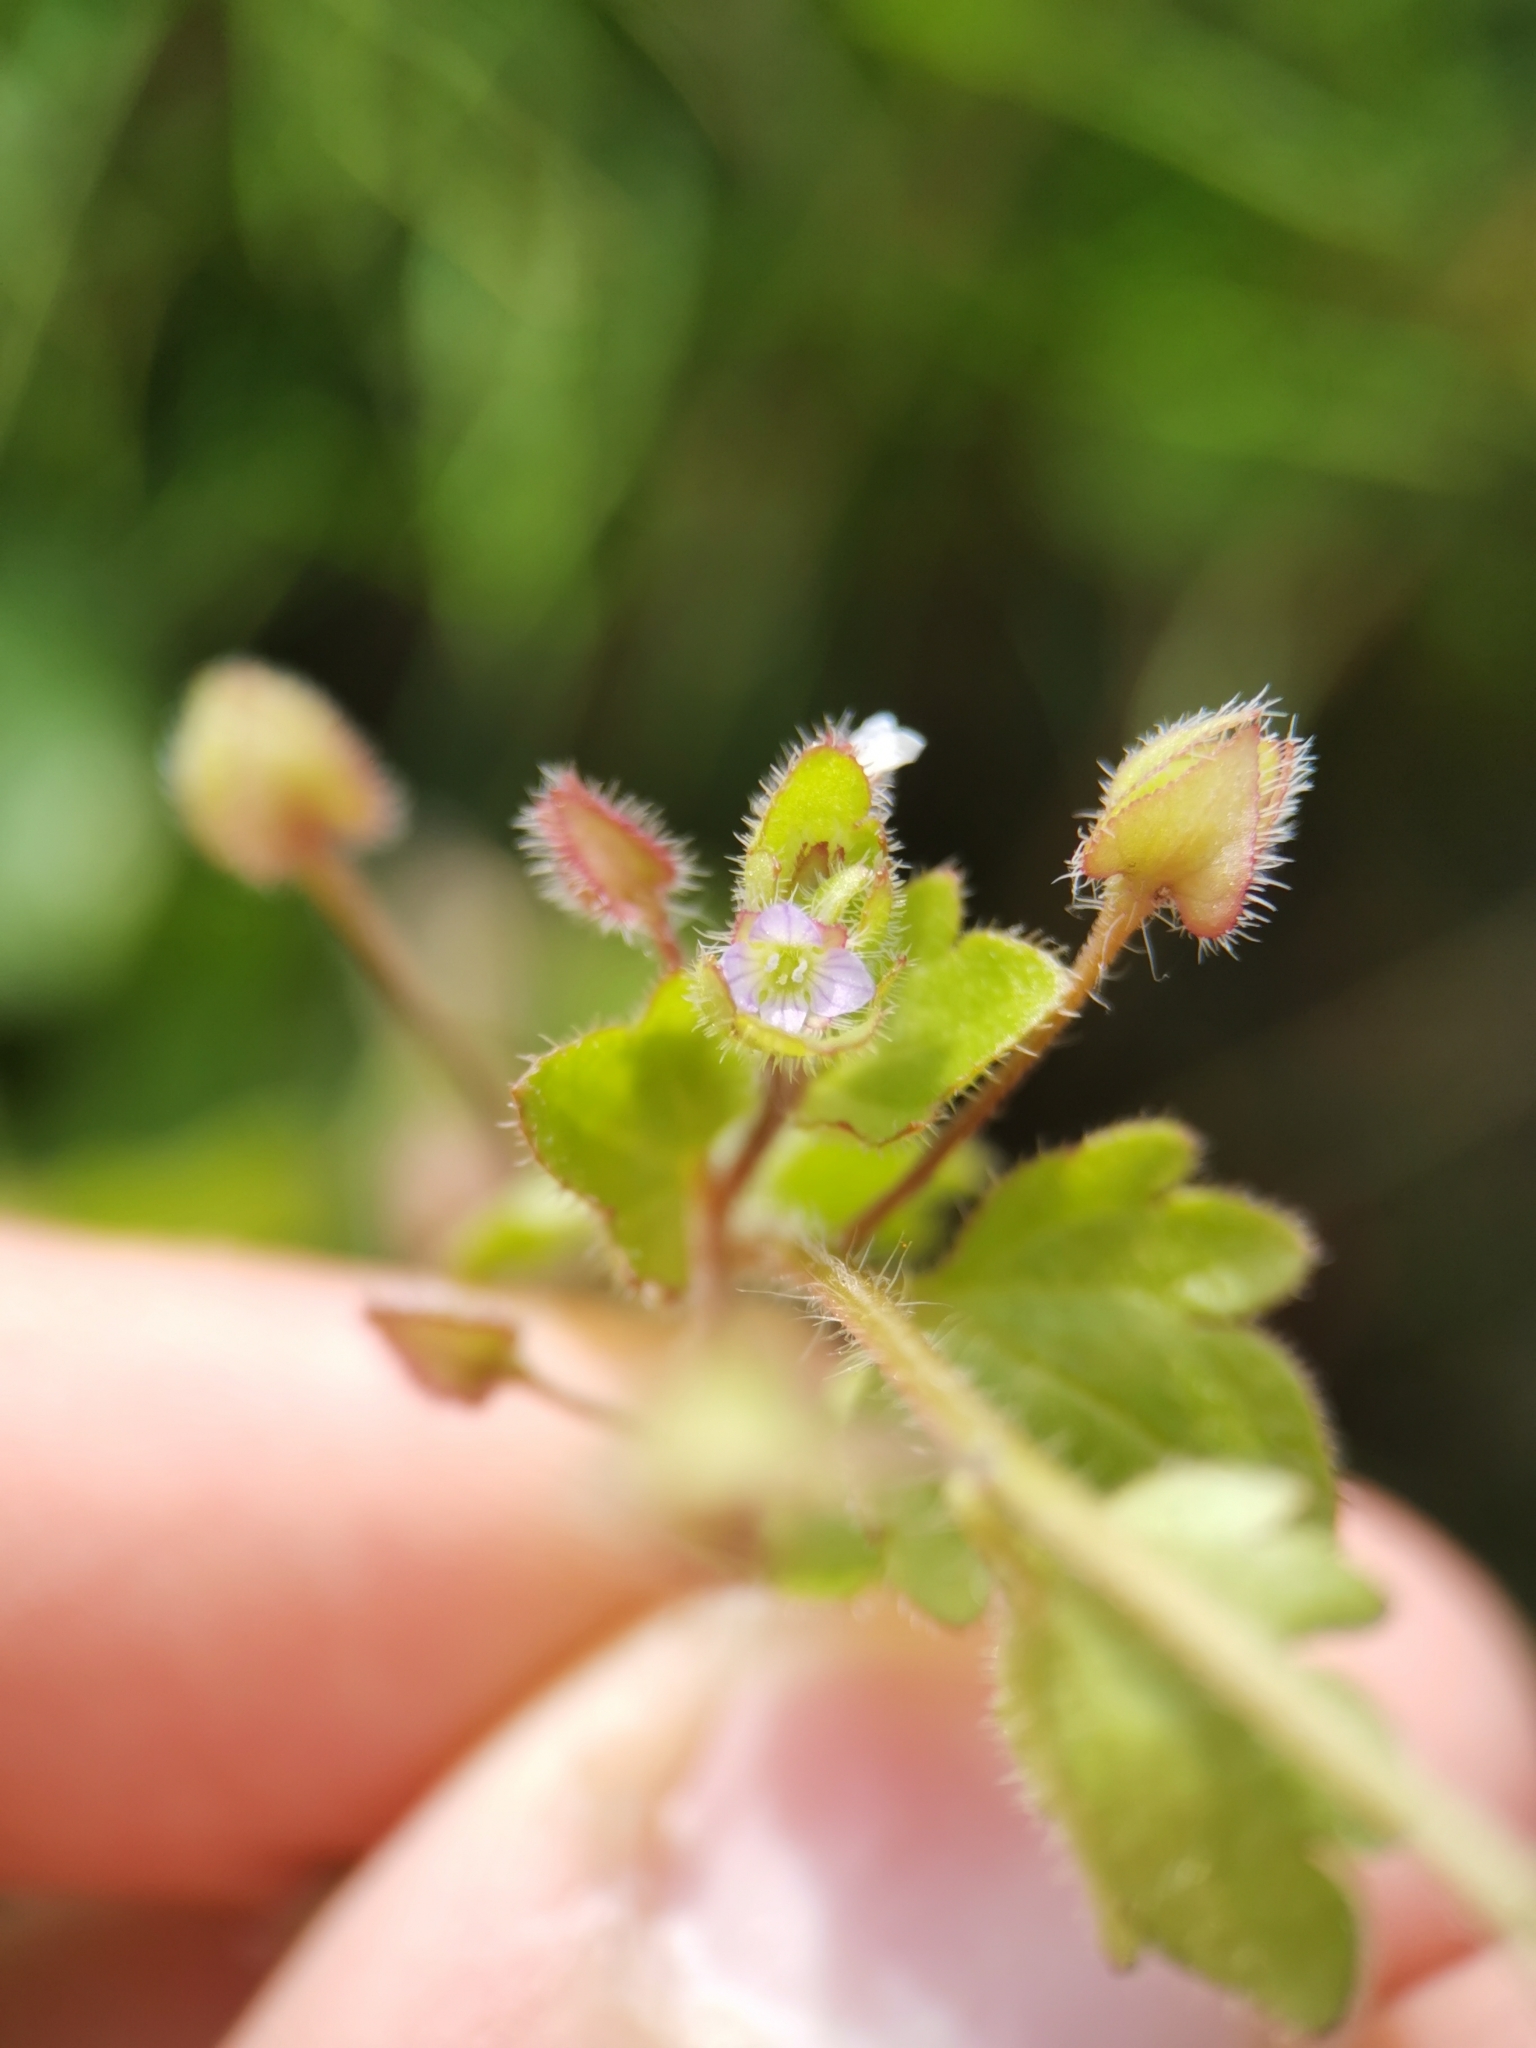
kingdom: Plantae
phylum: Tracheophyta
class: Magnoliopsida
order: Lamiales
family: Plantaginaceae
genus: Veronica
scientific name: Veronica sublobata
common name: False ivy-leaved speedwell
